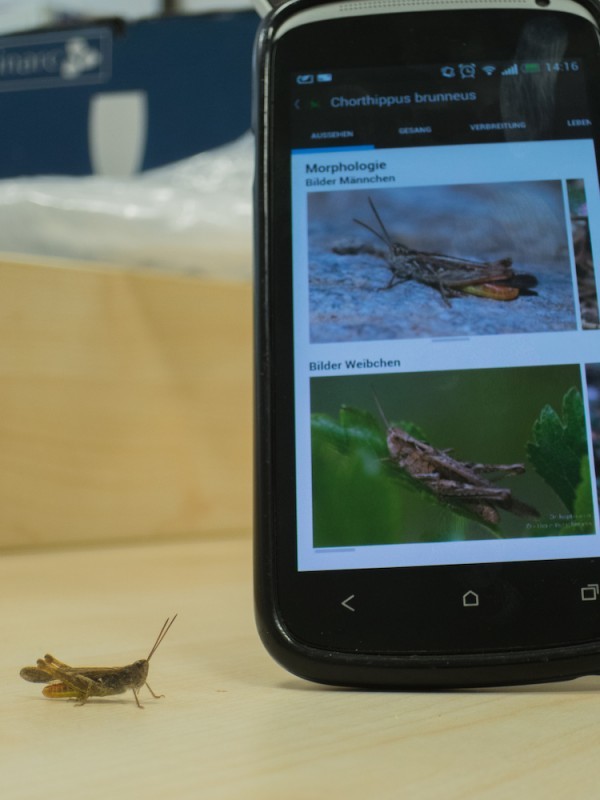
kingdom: Animalia
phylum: Arthropoda
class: Insecta
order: Orthoptera
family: Acrididae
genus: Chorthippus
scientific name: Chorthippus brunneus
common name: Field grasshopper
